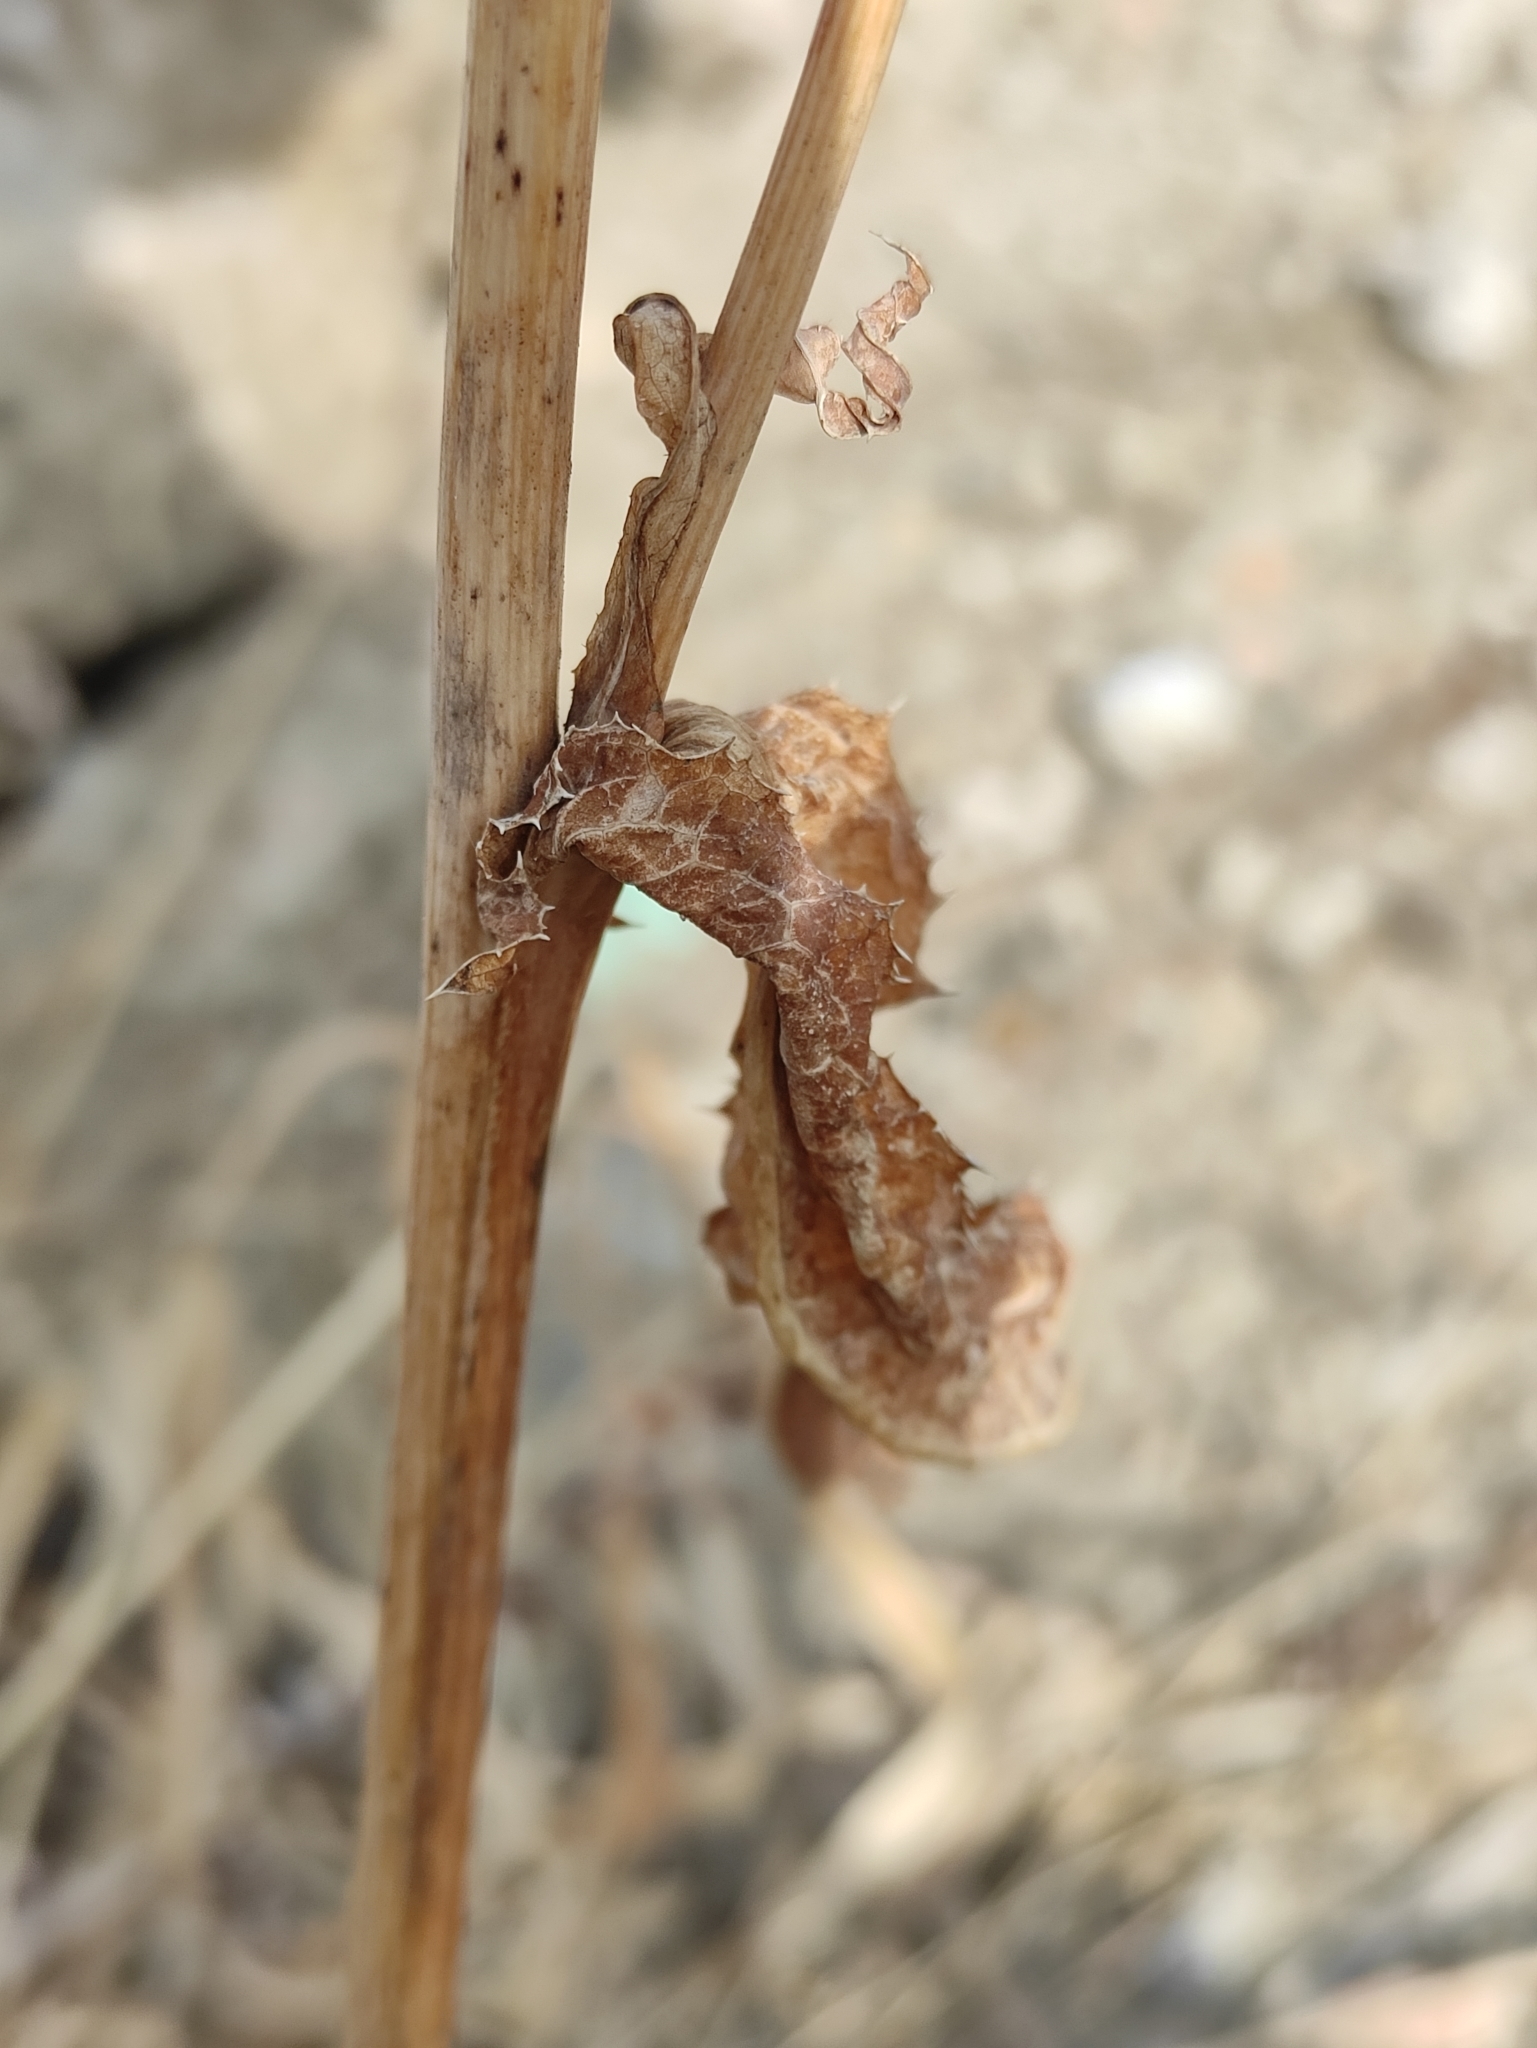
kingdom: Plantae
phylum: Tracheophyta
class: Magnoliopsida
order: Asterales
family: Asteraceae
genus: Sonchus
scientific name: Sonchus arvensis
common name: Perennial sow-thistle
